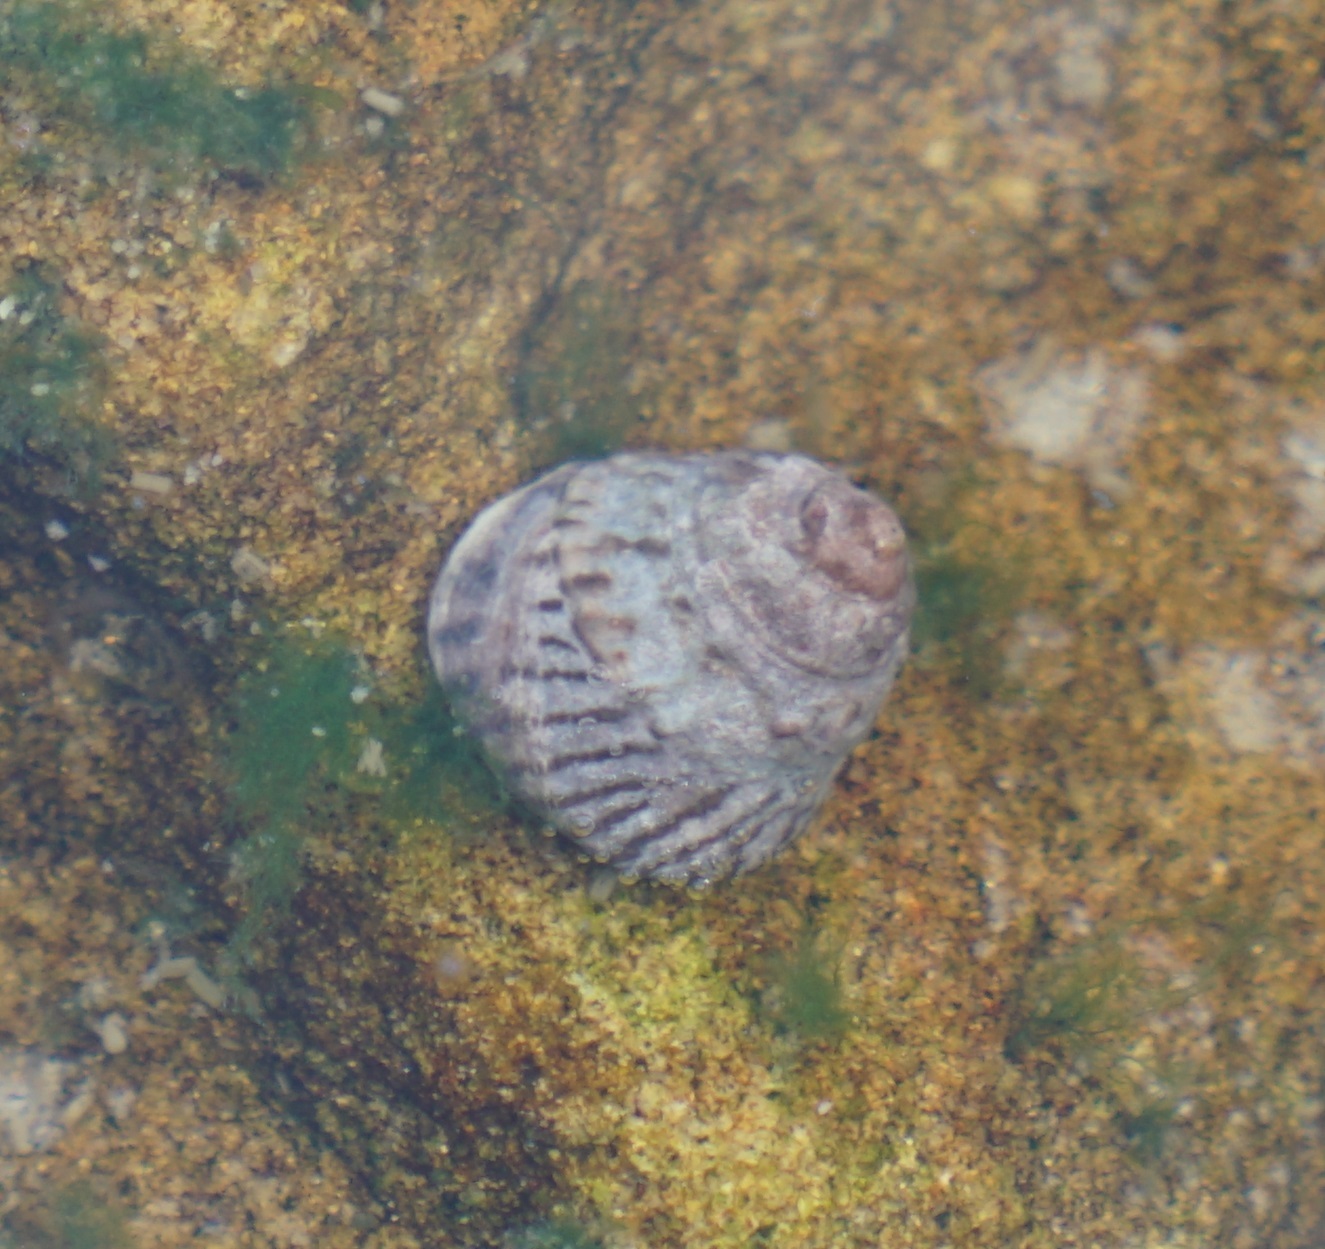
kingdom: Animalia
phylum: Mollusca
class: Gastropoda
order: Littorinimorpha
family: Littorinidae
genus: Bembicium
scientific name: Bembicium nanum
